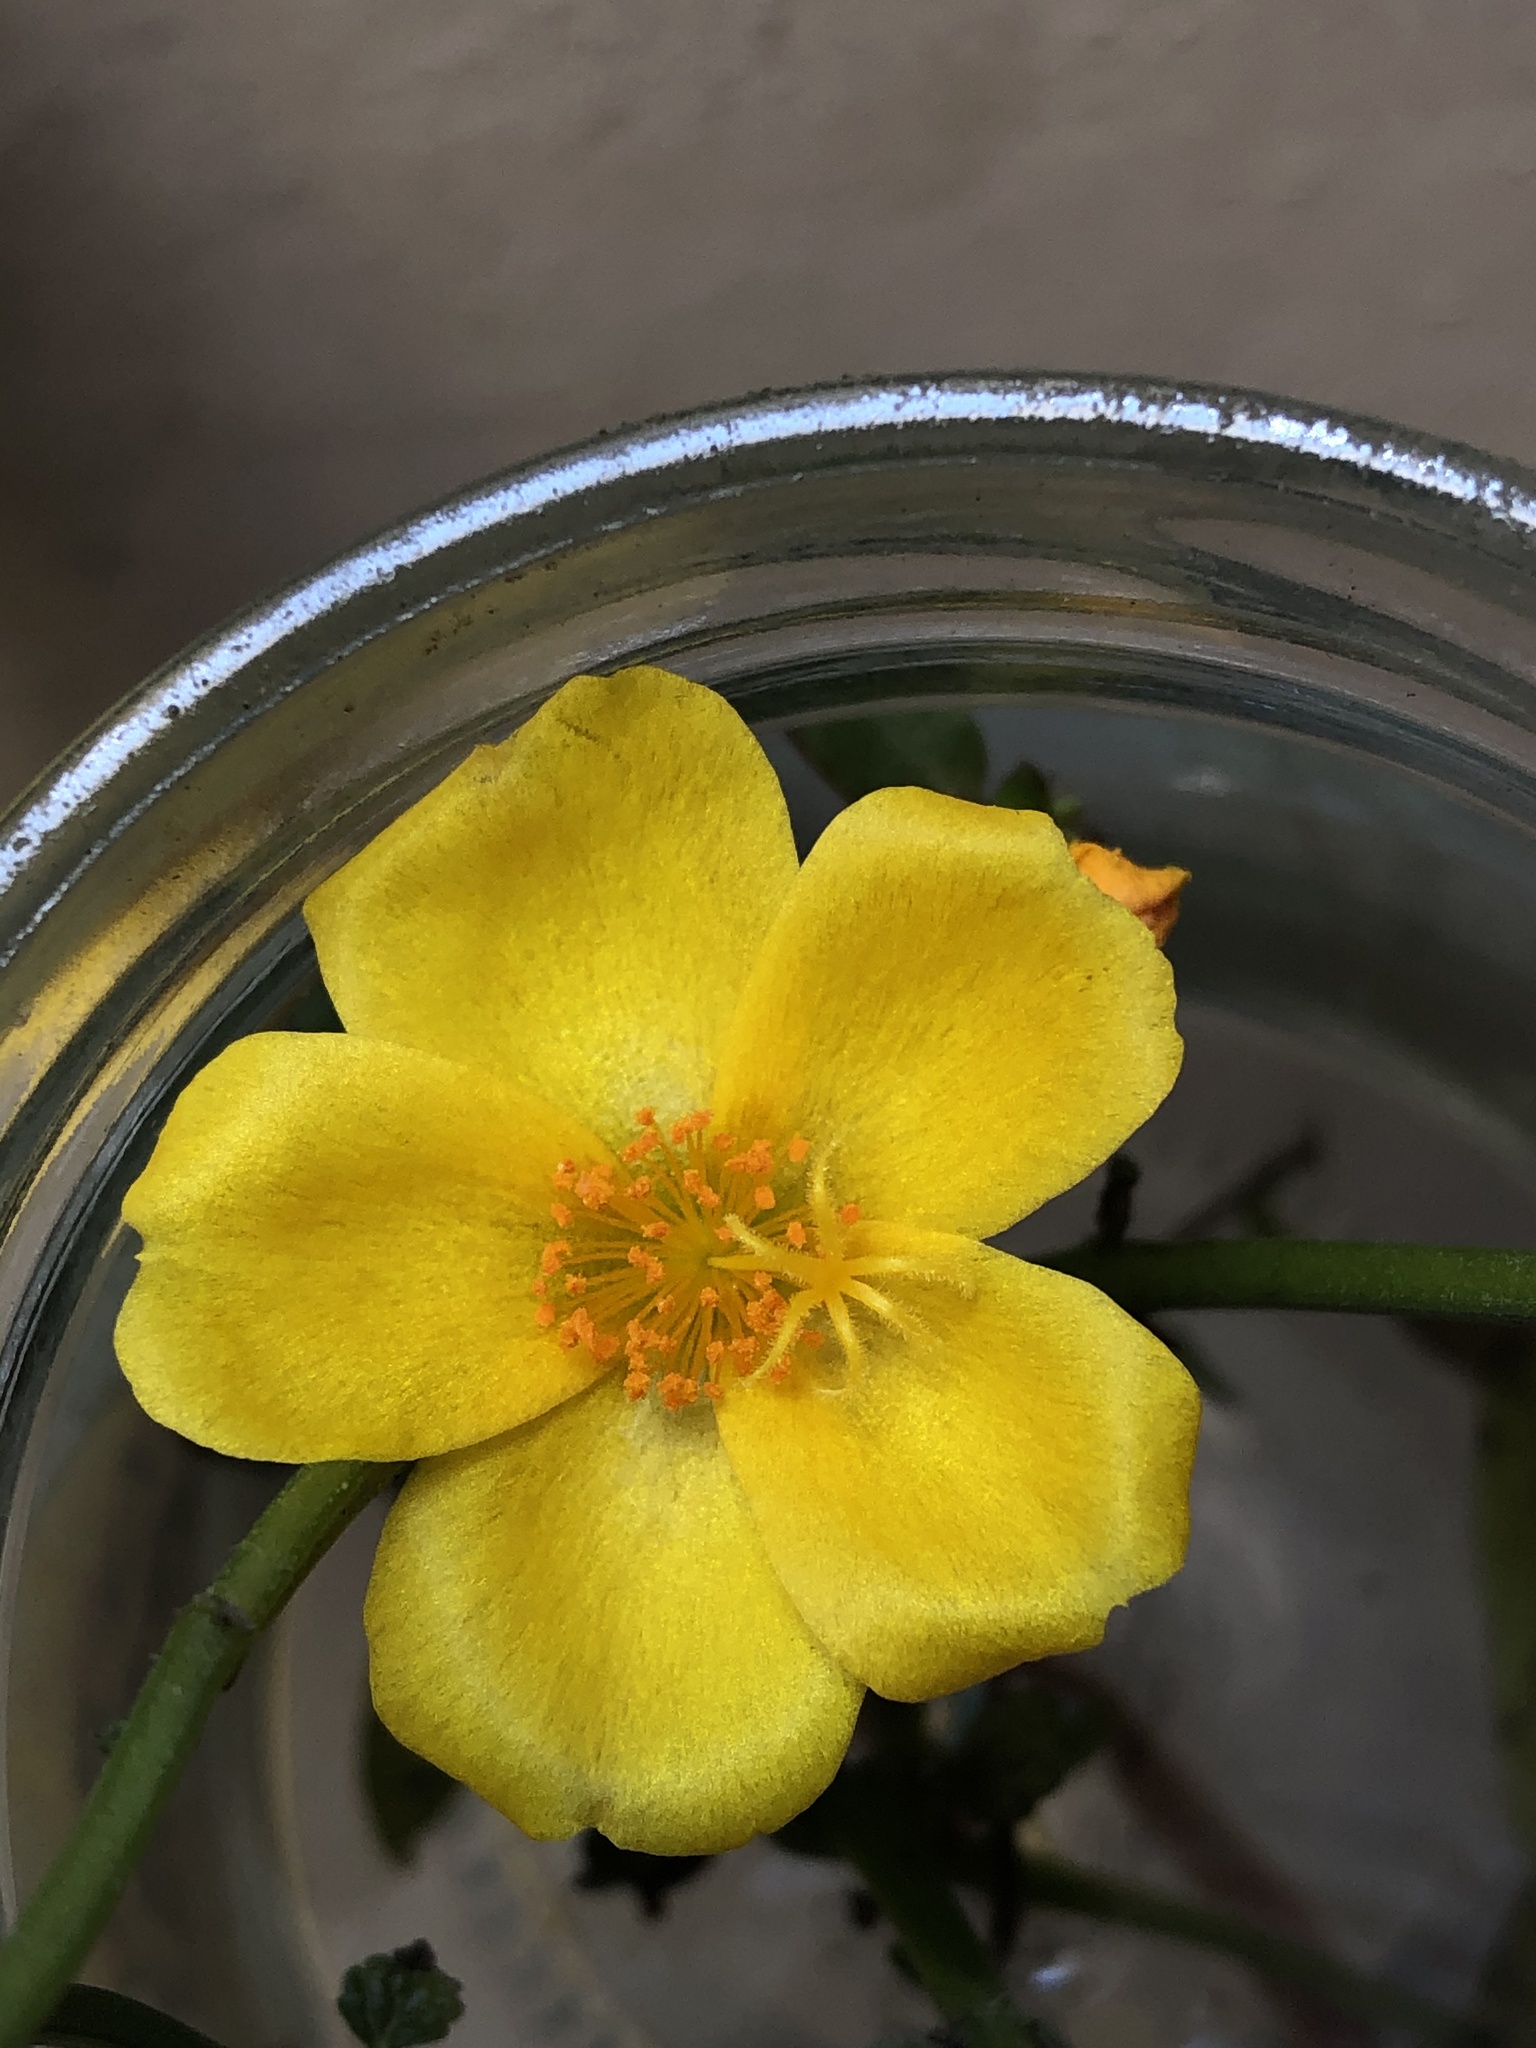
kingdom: Plantae
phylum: Tracheophyta
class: Magnoliopsida
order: Caryophyllales
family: Portulacaceae
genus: Portulaca
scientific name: Portulaca grandiflora
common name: Moss-rose
